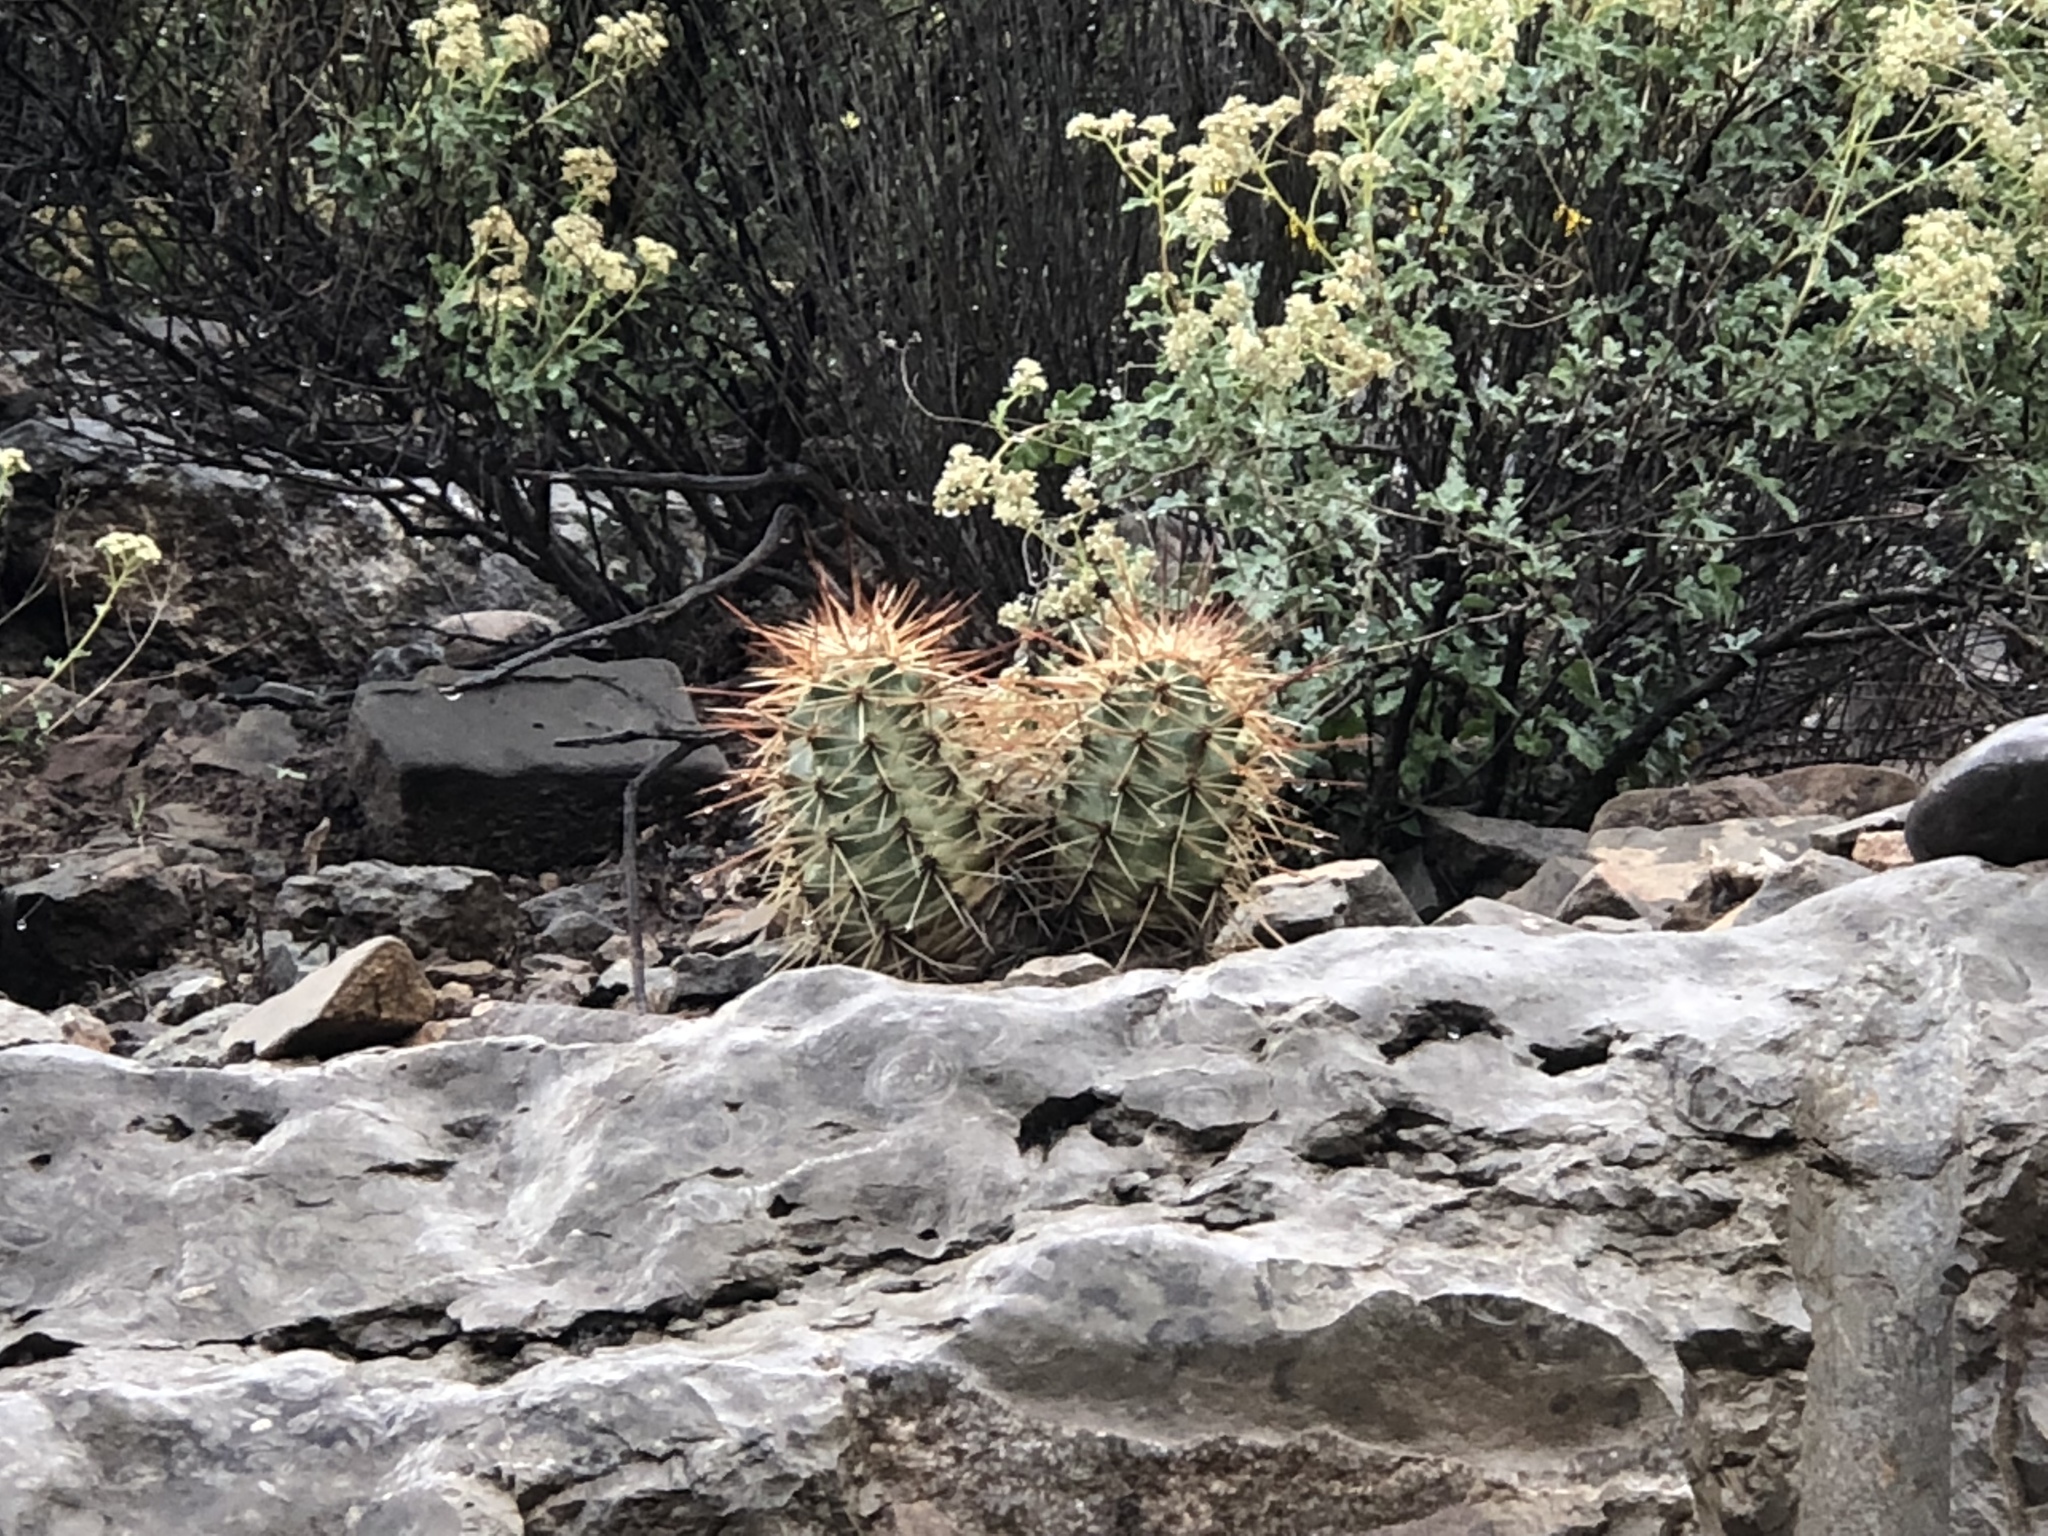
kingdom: Plantae
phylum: Tracheophyta
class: Magnoliopsida
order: Caryophyllales
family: Cactaceae
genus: Echinocereus
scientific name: Echinocereus coccineus
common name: Scarlet hedgehog cactus
